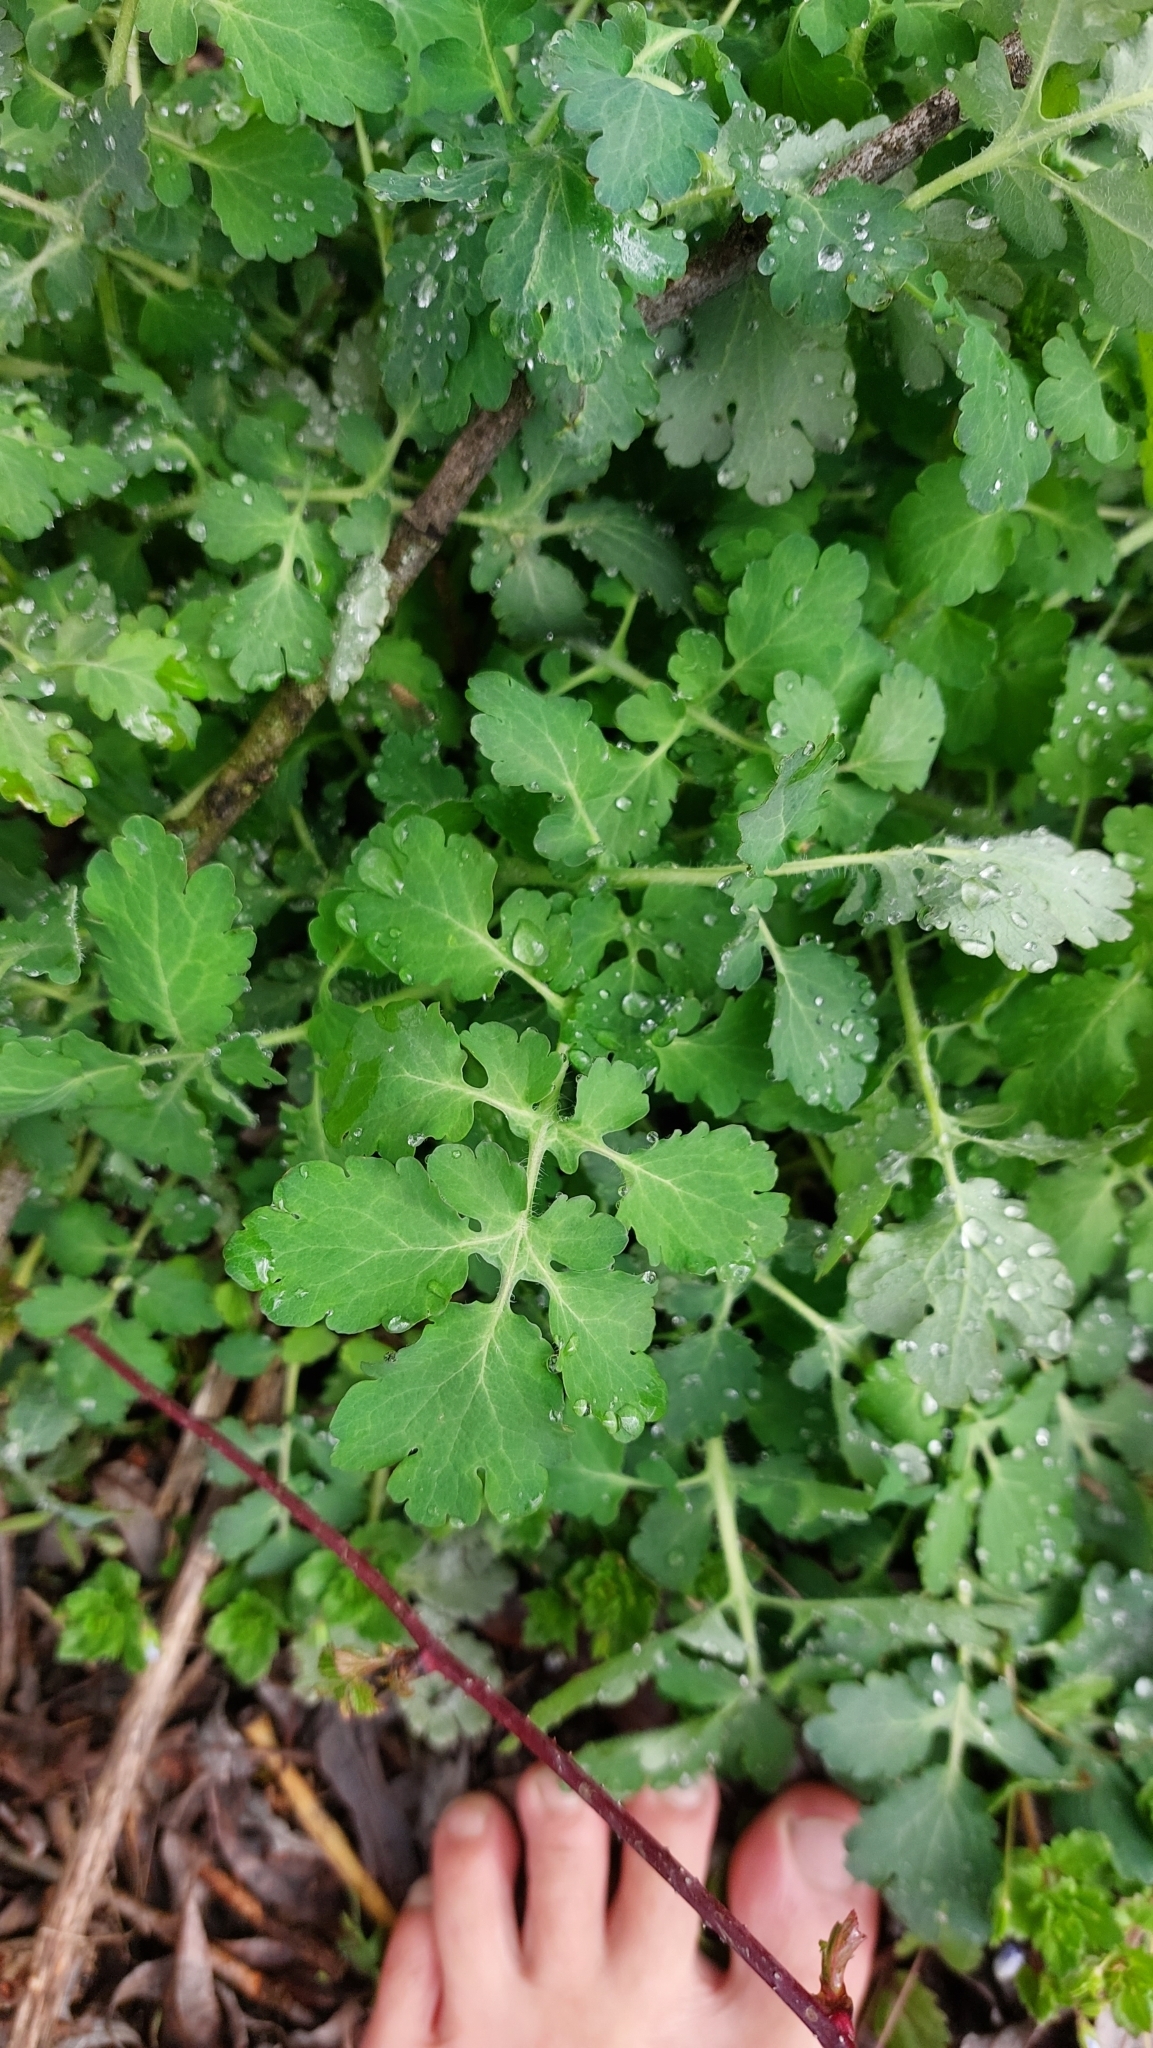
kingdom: Plantae
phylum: Tracheophyta
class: Magnoliopsida
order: Ranunculales
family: Papaveraceae
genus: Chelidonium
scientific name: Chelidonium majus
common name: Greater celandine
